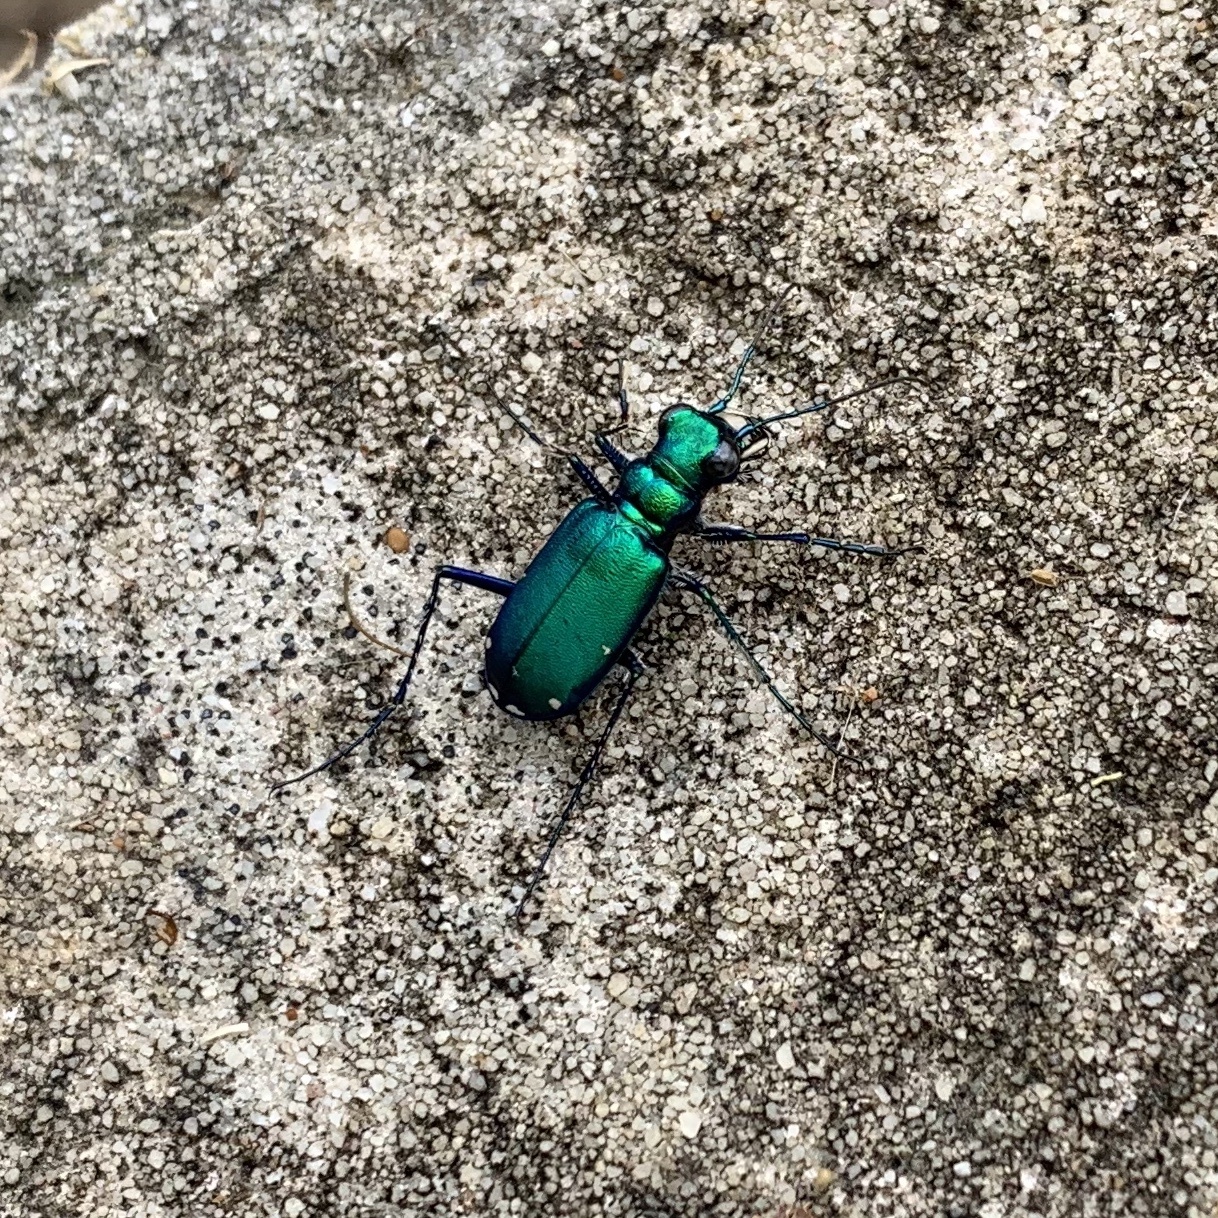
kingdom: Animalia
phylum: Arthropoda
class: Insecta
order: Coleoptera
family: Carabidae
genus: Cicindela
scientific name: Cicindela sexguttata
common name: Six-spotted tiger beetle
